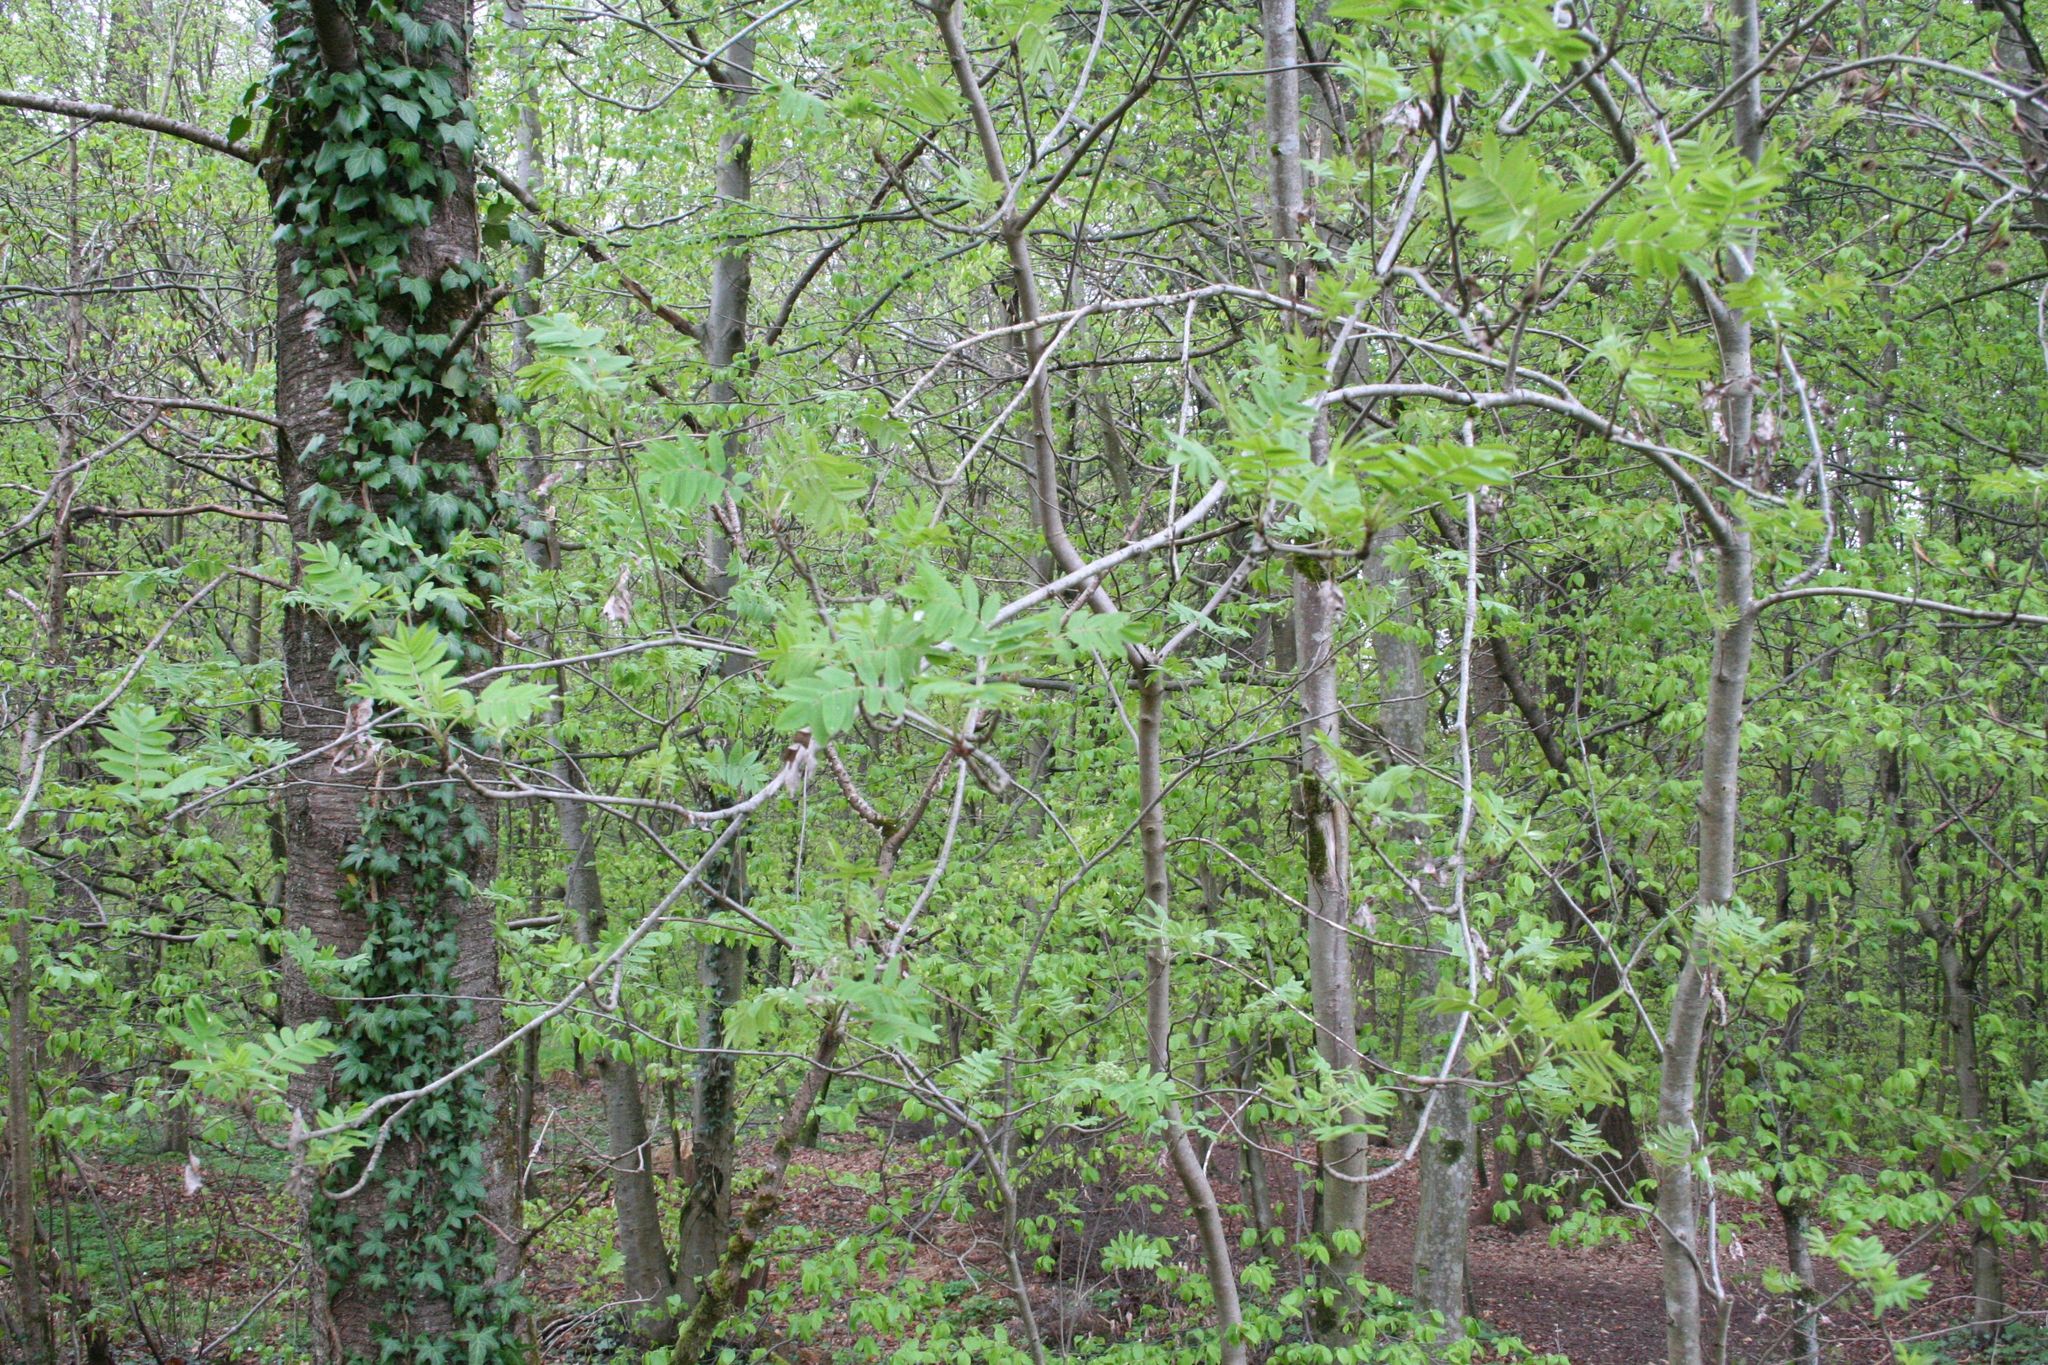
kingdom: Plantae
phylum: Tracheophyta
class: Magnoliopsida
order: Rosales
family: Rosaceae
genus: Sorbus
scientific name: Sorbus aucuparia
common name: Rowan
